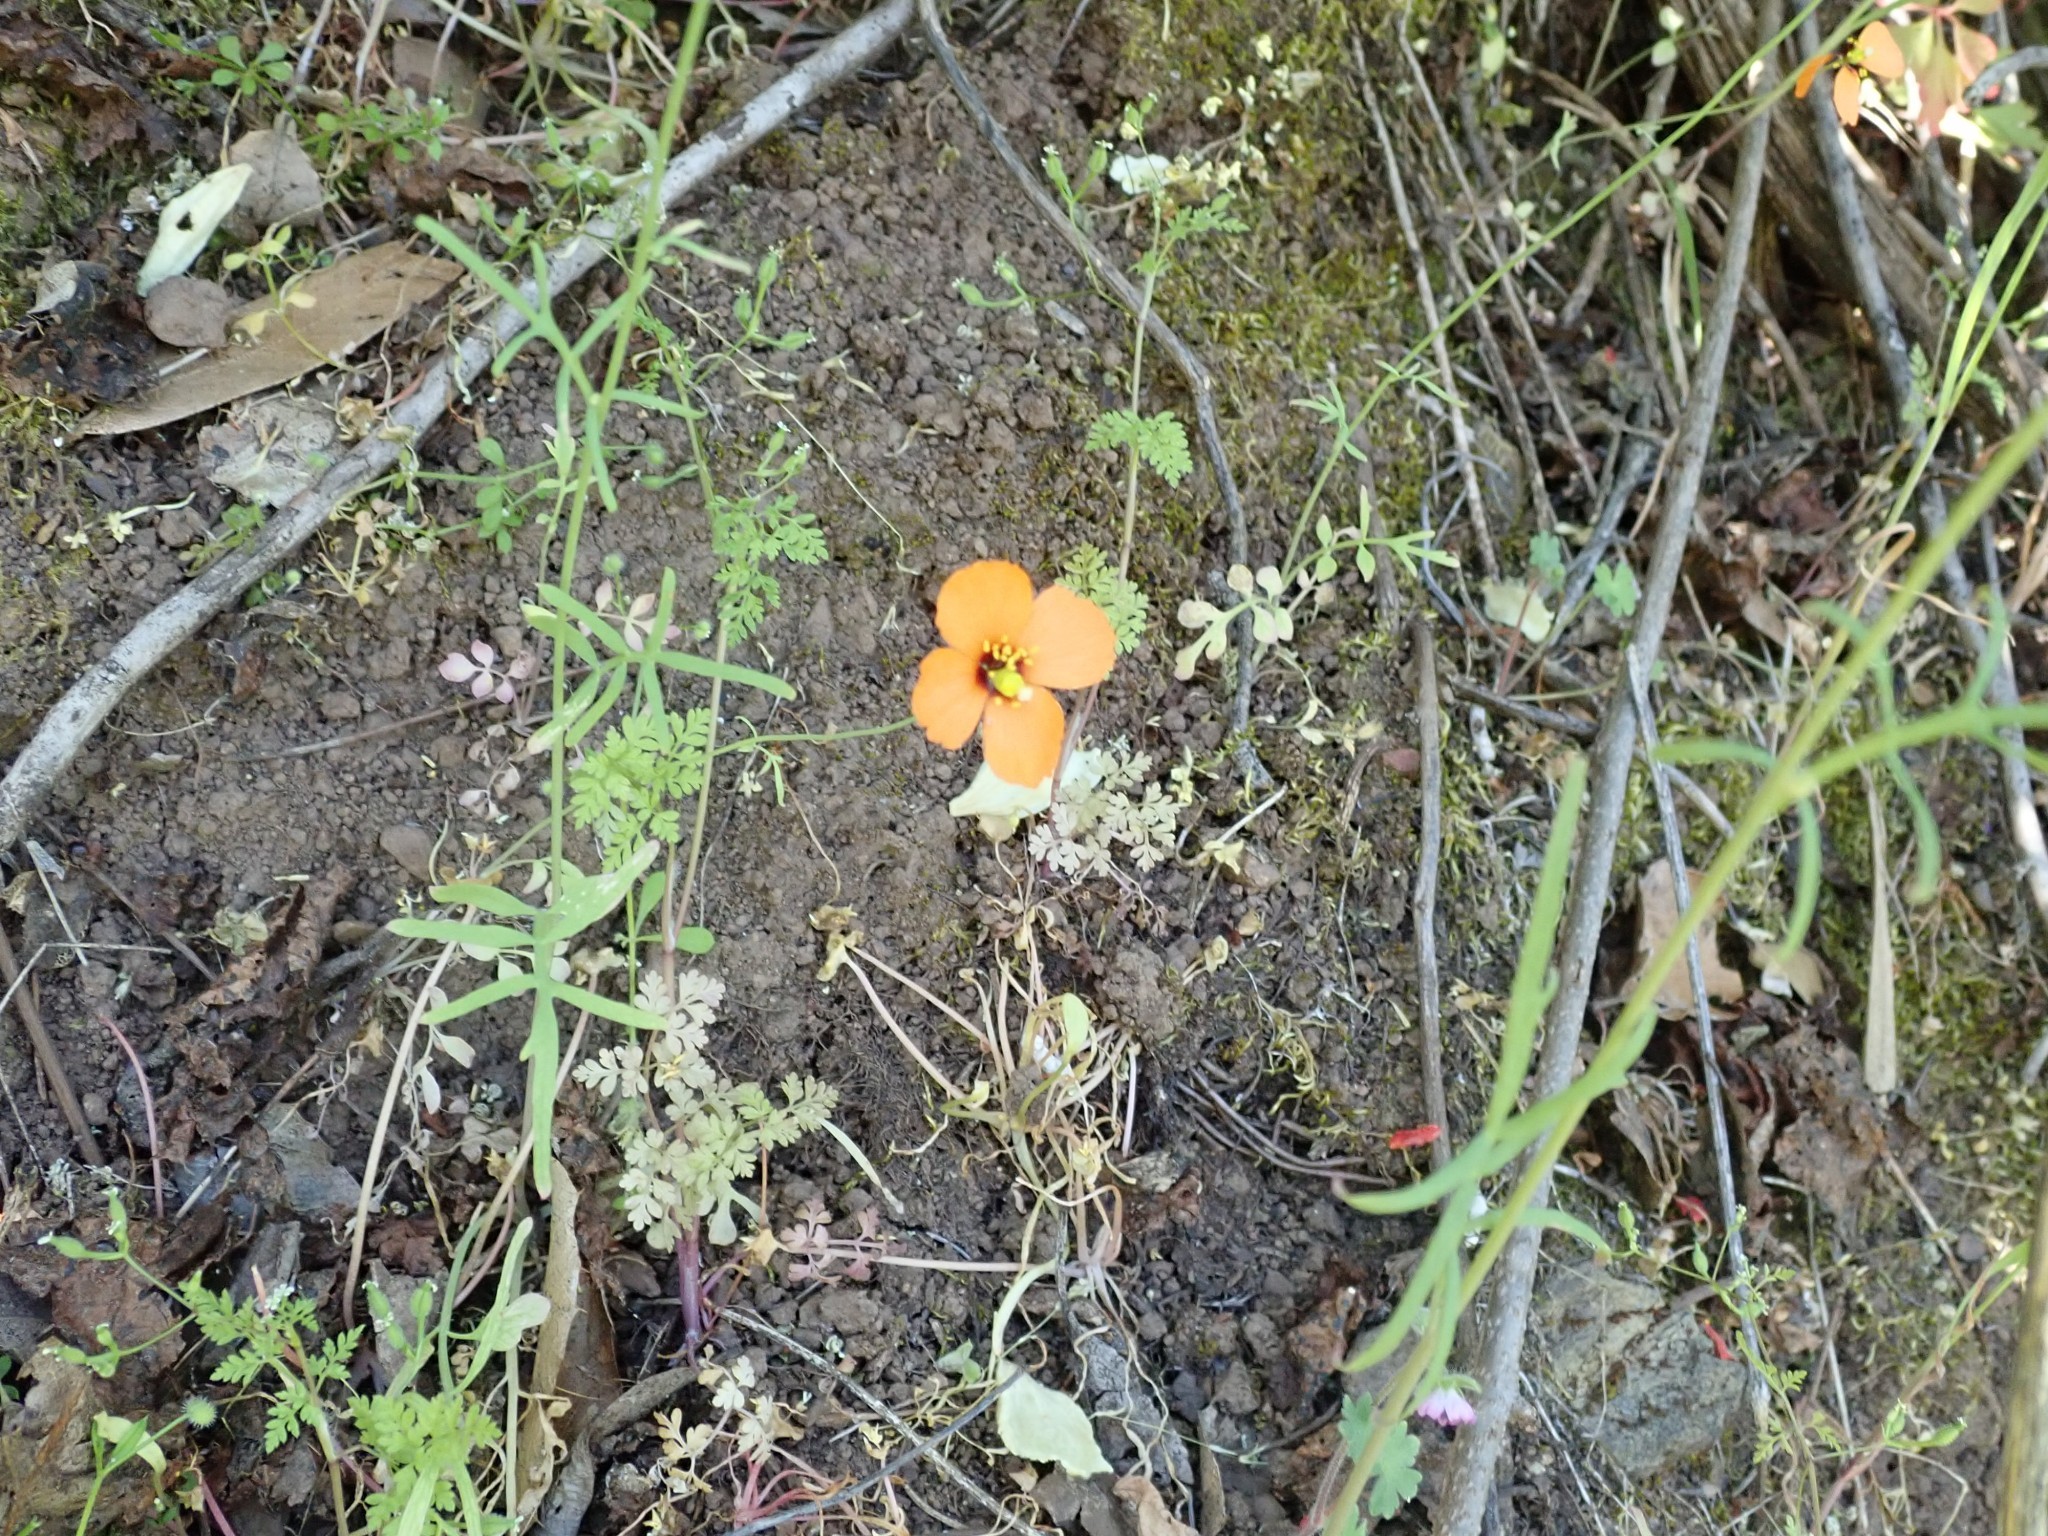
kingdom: Plantae
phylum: Tracheophyta
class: Magnoliopsida
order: Ranunculales
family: Papaveraceae
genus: Stylomecon
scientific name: Stylomecon heterophylla
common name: Flaming-poppy
